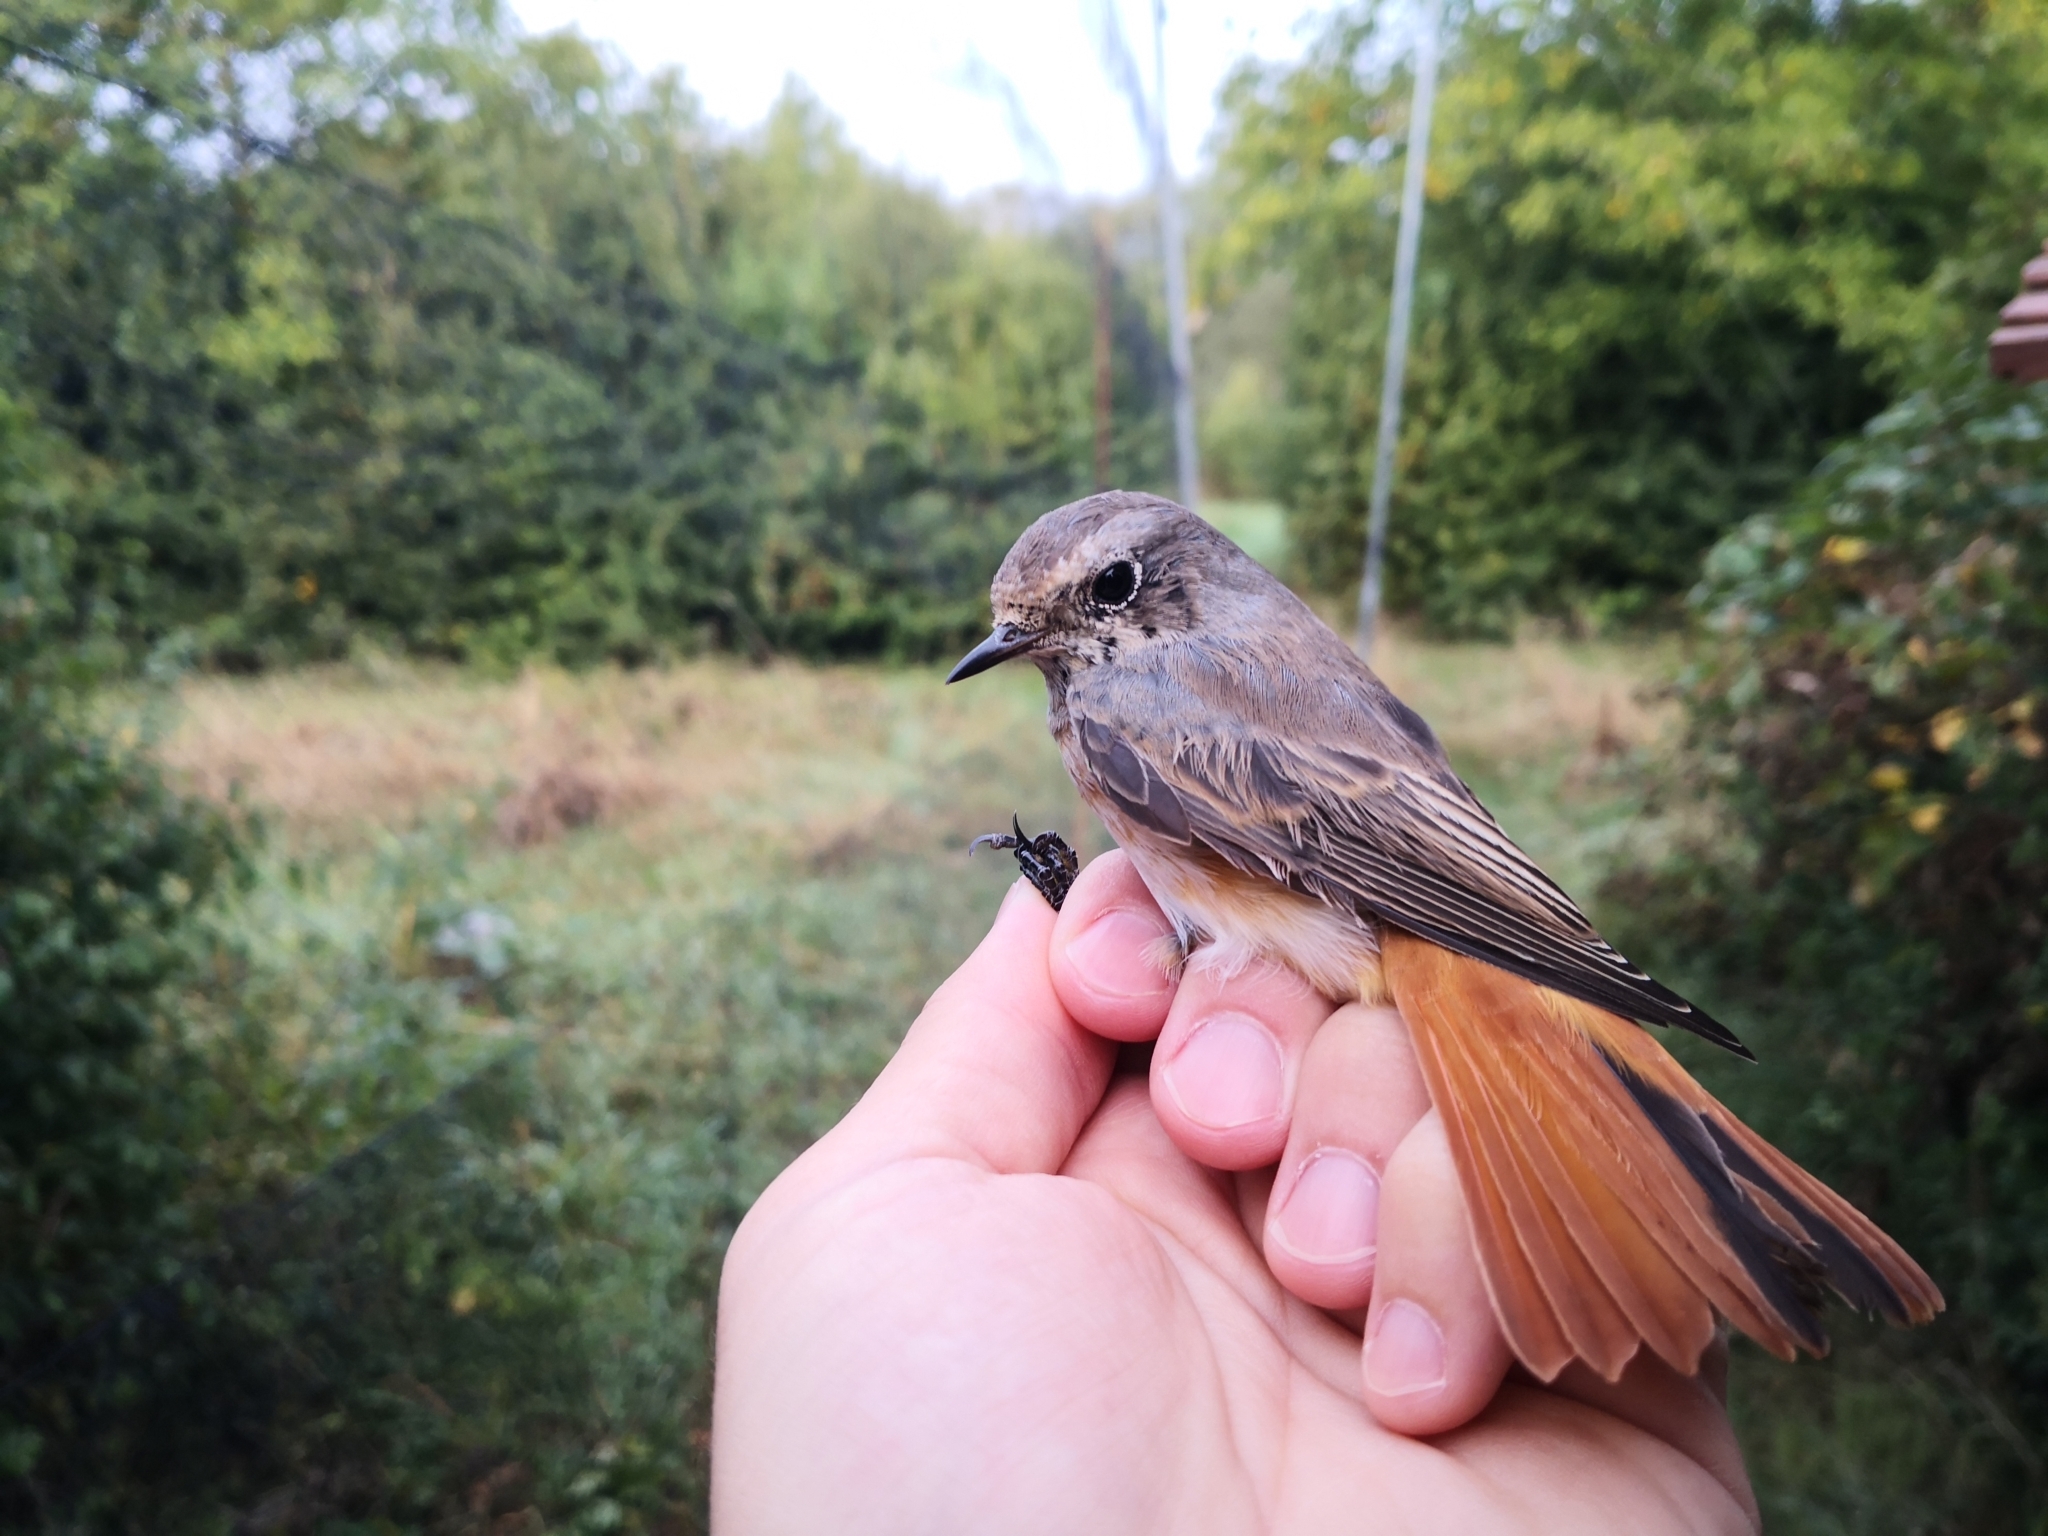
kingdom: Animalia
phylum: Chordata
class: Aves
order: Passeriformes
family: Muscicapidae
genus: Phoenicurus
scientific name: Phoenicurus phoenicurus
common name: Common redstart
